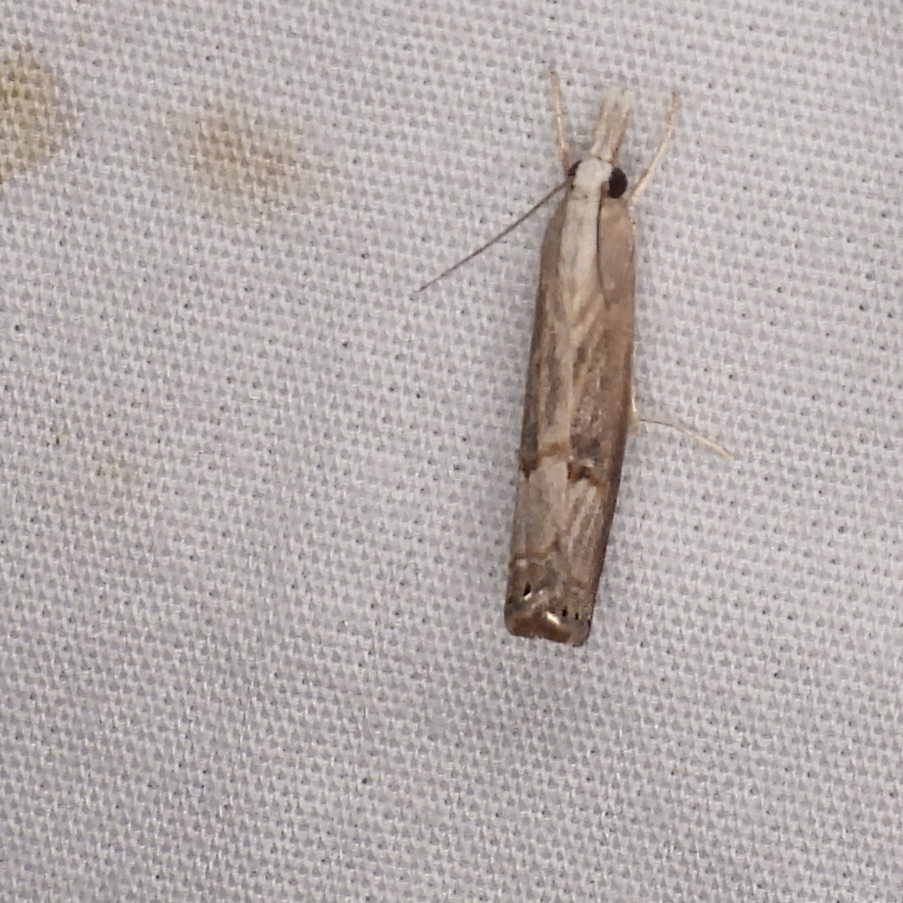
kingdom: Animalia
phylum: Arthropoda
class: Insecta
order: Lepidoptera
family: Crambidae
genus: Parapediasia
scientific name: Parapediasia teterellus
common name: Bluegrass webworm moth
